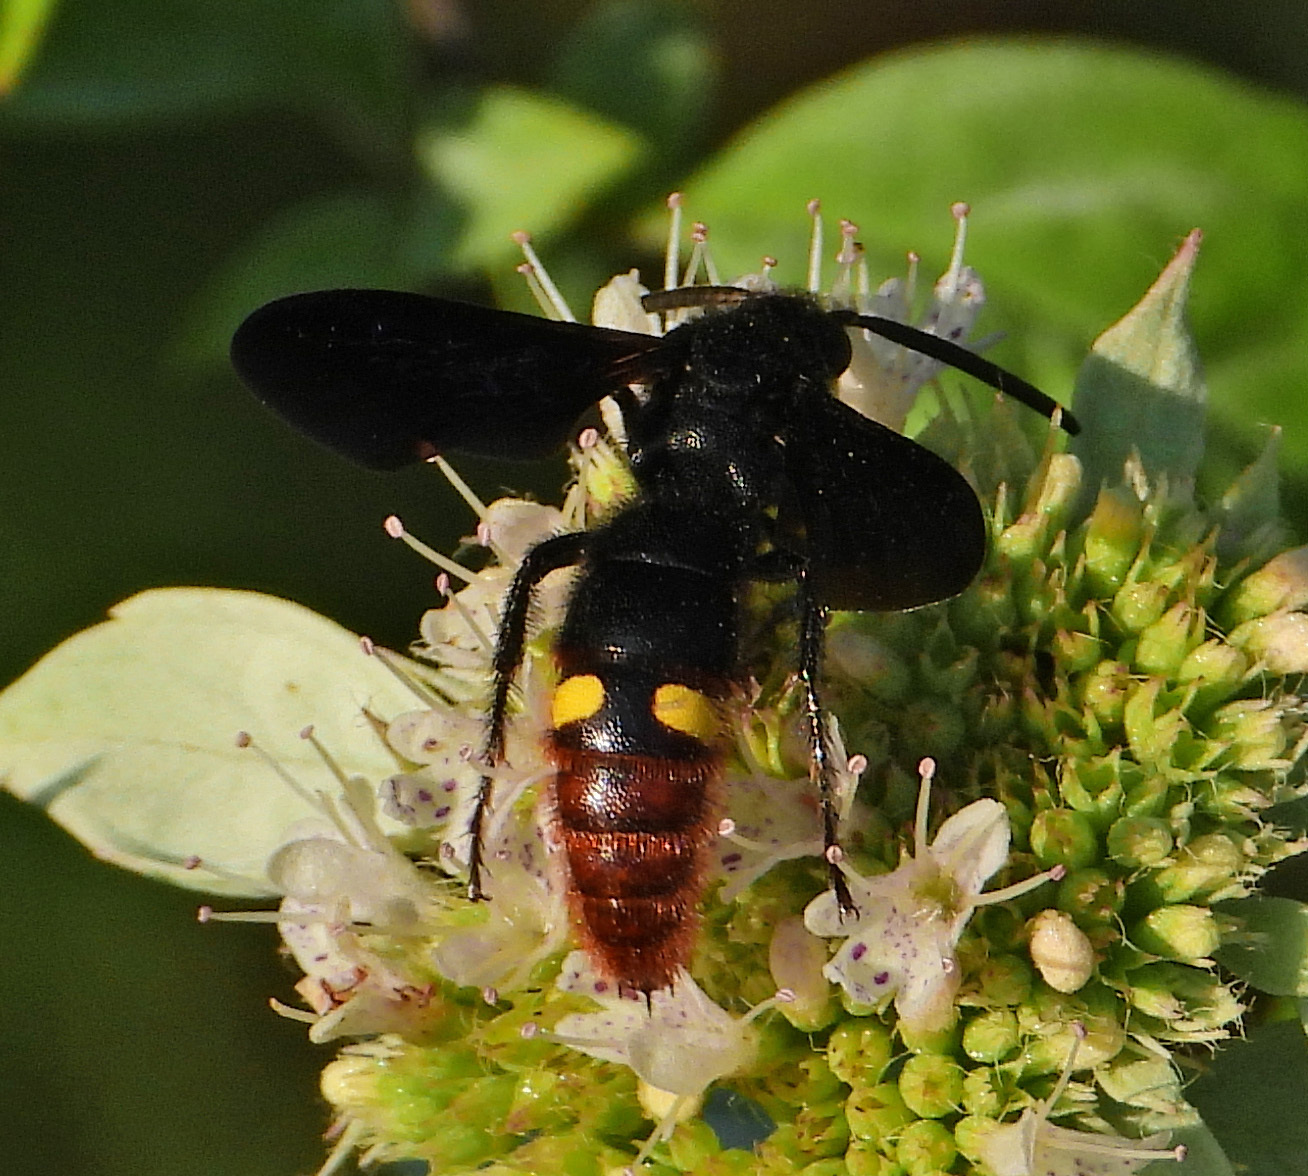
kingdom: Animalia
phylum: Arthropoda
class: Insecta
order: Hymenoptera
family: Scoliidae
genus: Scolia
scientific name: Scolia dubia
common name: Blue-winged scoliid wasp
